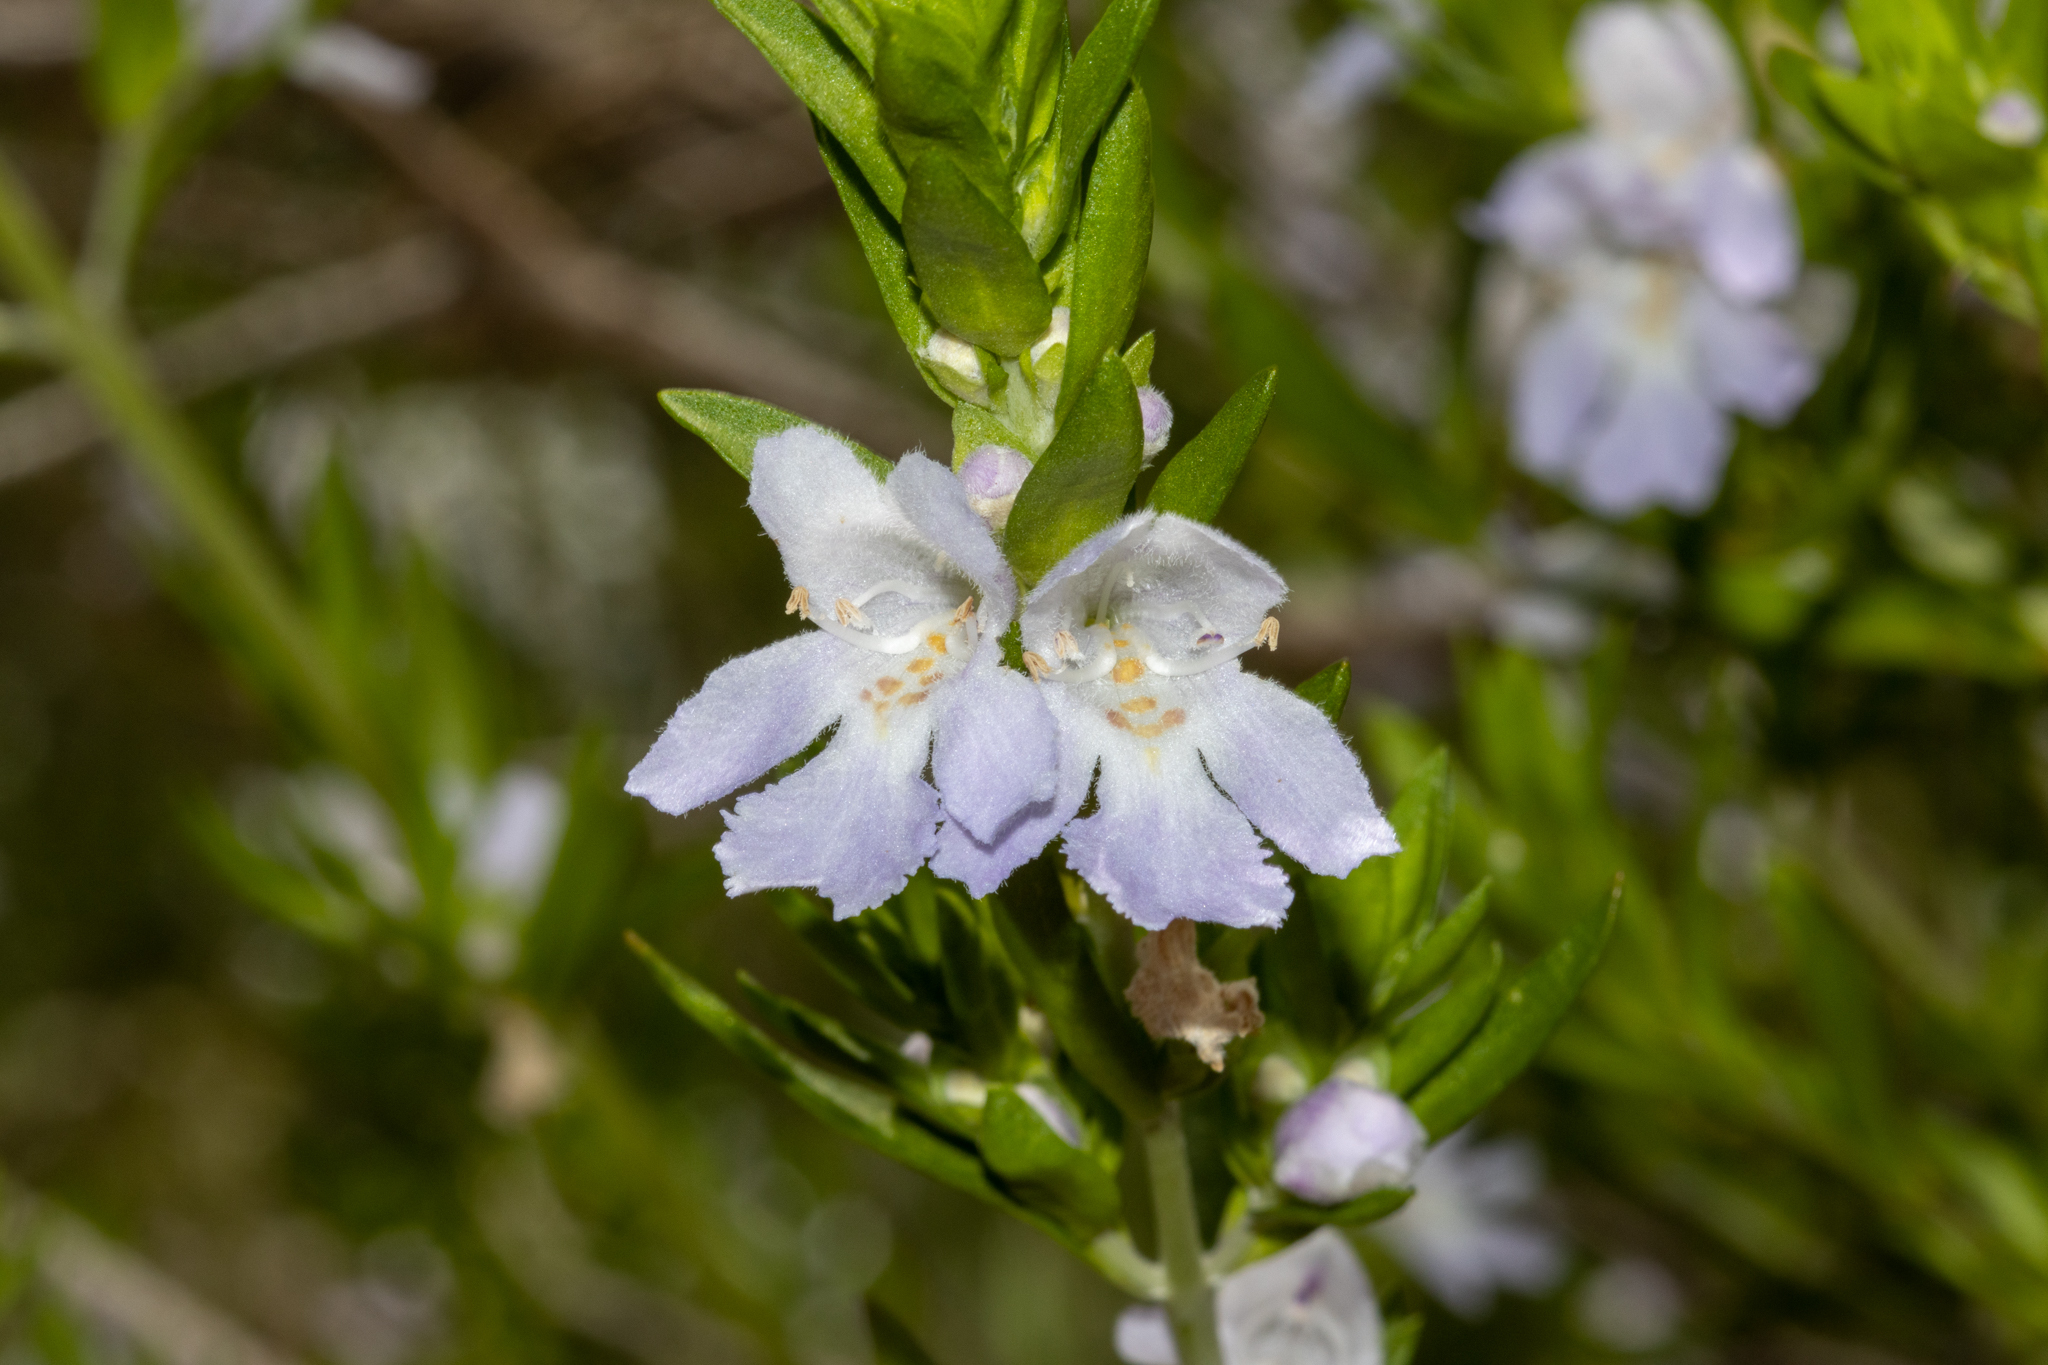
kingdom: Plantae
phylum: Tracheophyta
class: Magnoliopsida
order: Lamiales
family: Lamiaceae
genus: Prostanthera
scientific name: Prostanthera behriana
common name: Downy mintbush
